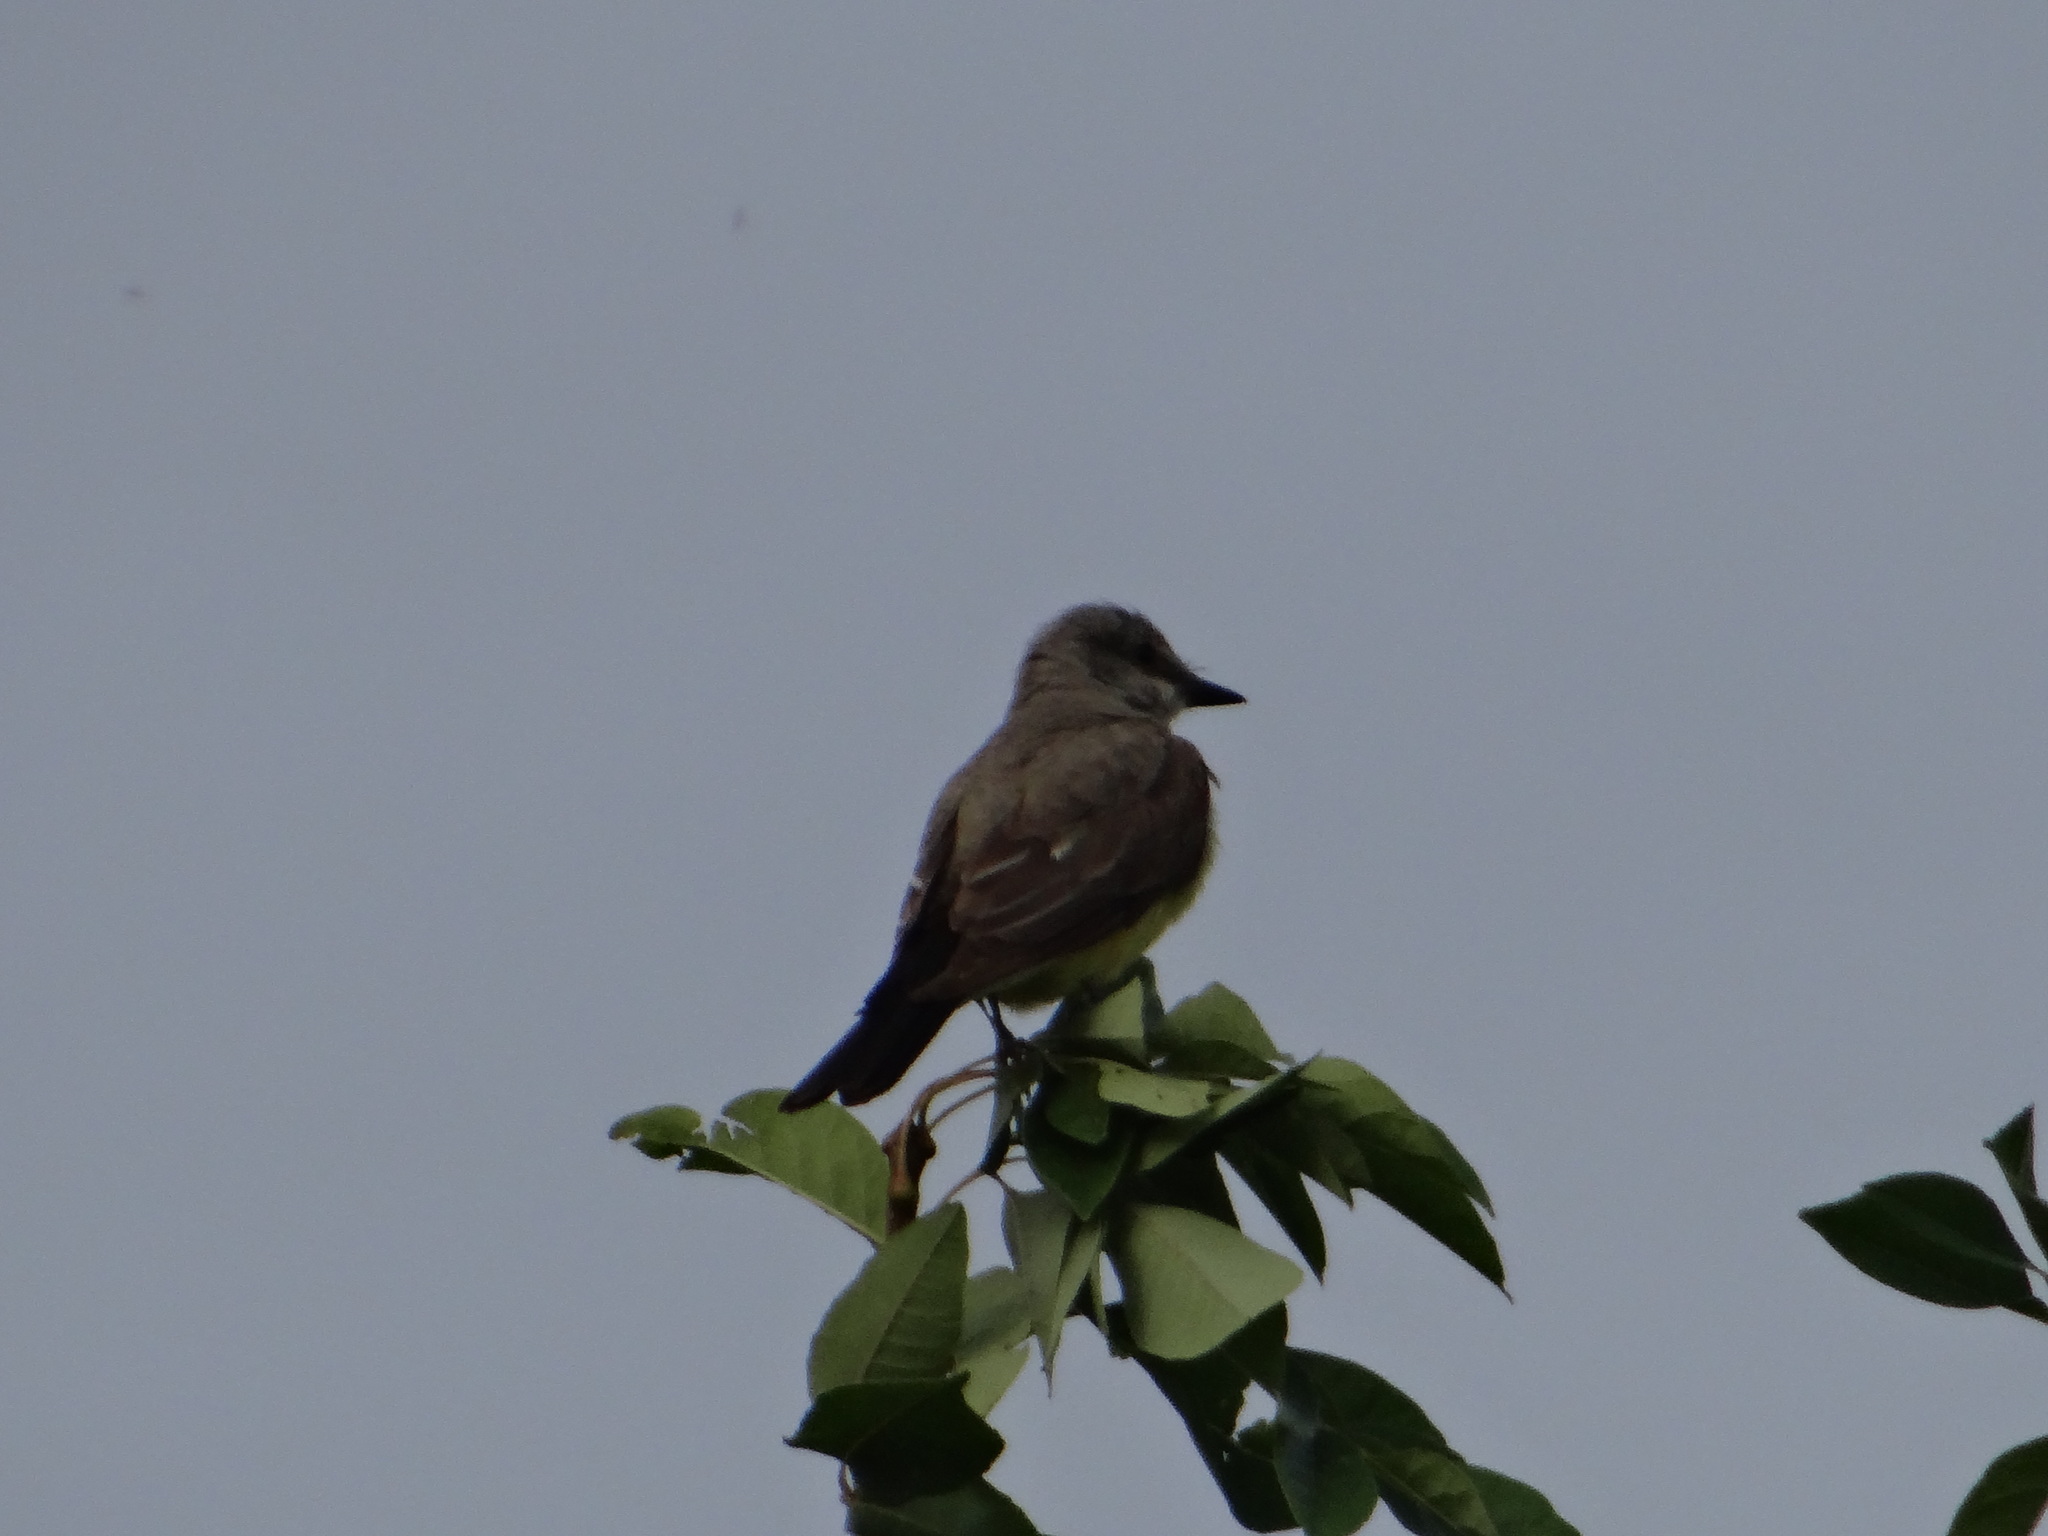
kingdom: Animalia
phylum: Chordata
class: Aves
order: Passeriformes
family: Tyrannidae
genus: Tyrannus
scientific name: Tyrannus verticalis
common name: Western kingbird
